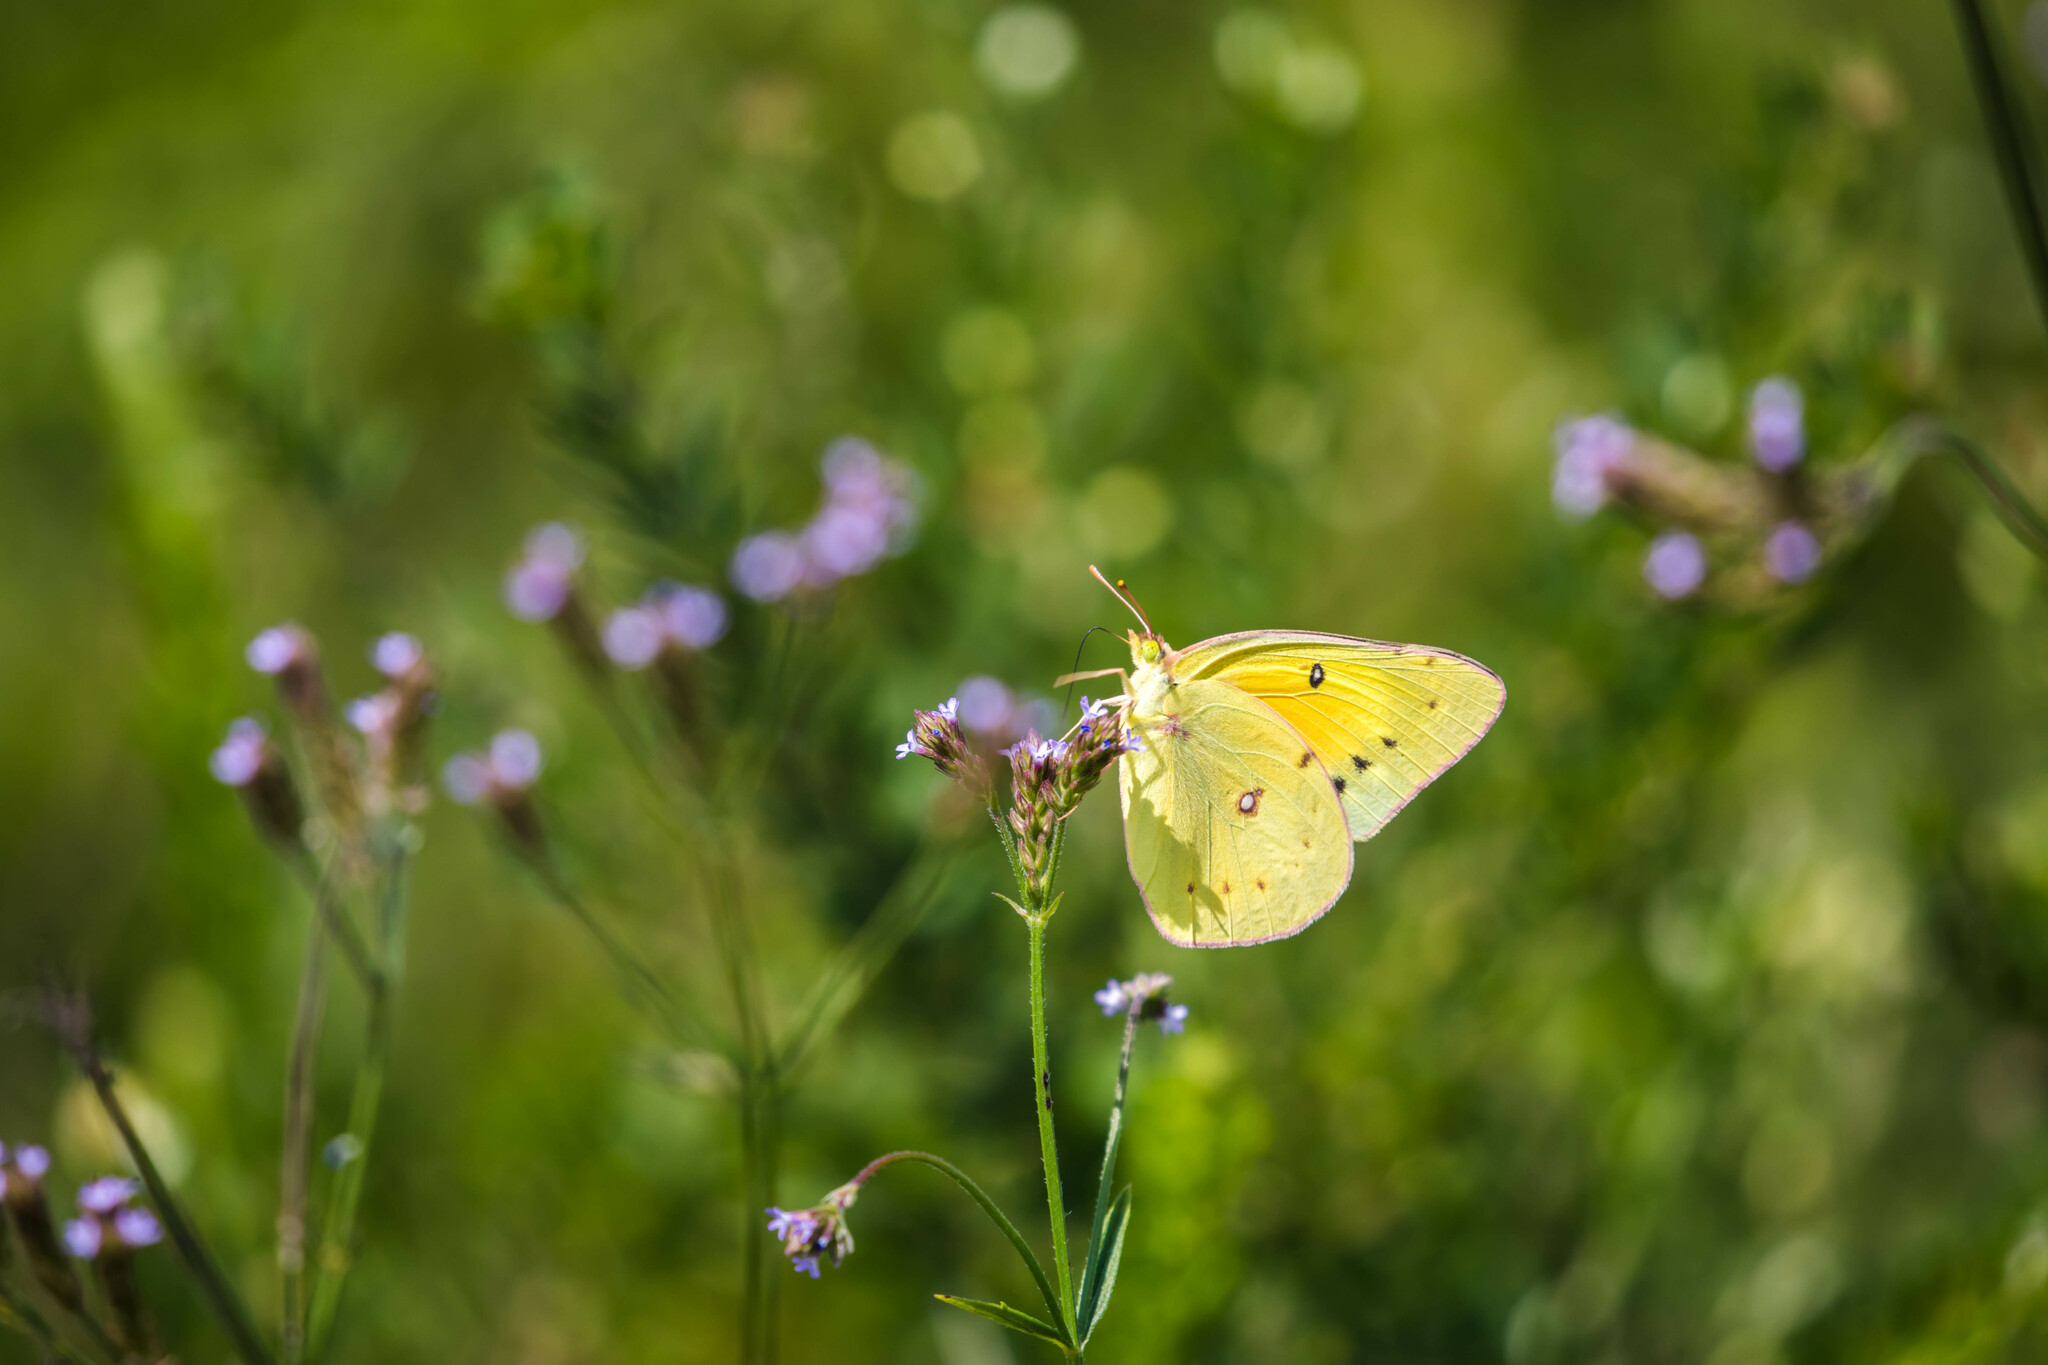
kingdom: Animalia
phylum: Arthropoda
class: Insecta
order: Lepidoptera
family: Pieridae
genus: Colias
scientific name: Colias eurytheme
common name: Alfalfa butterfly
